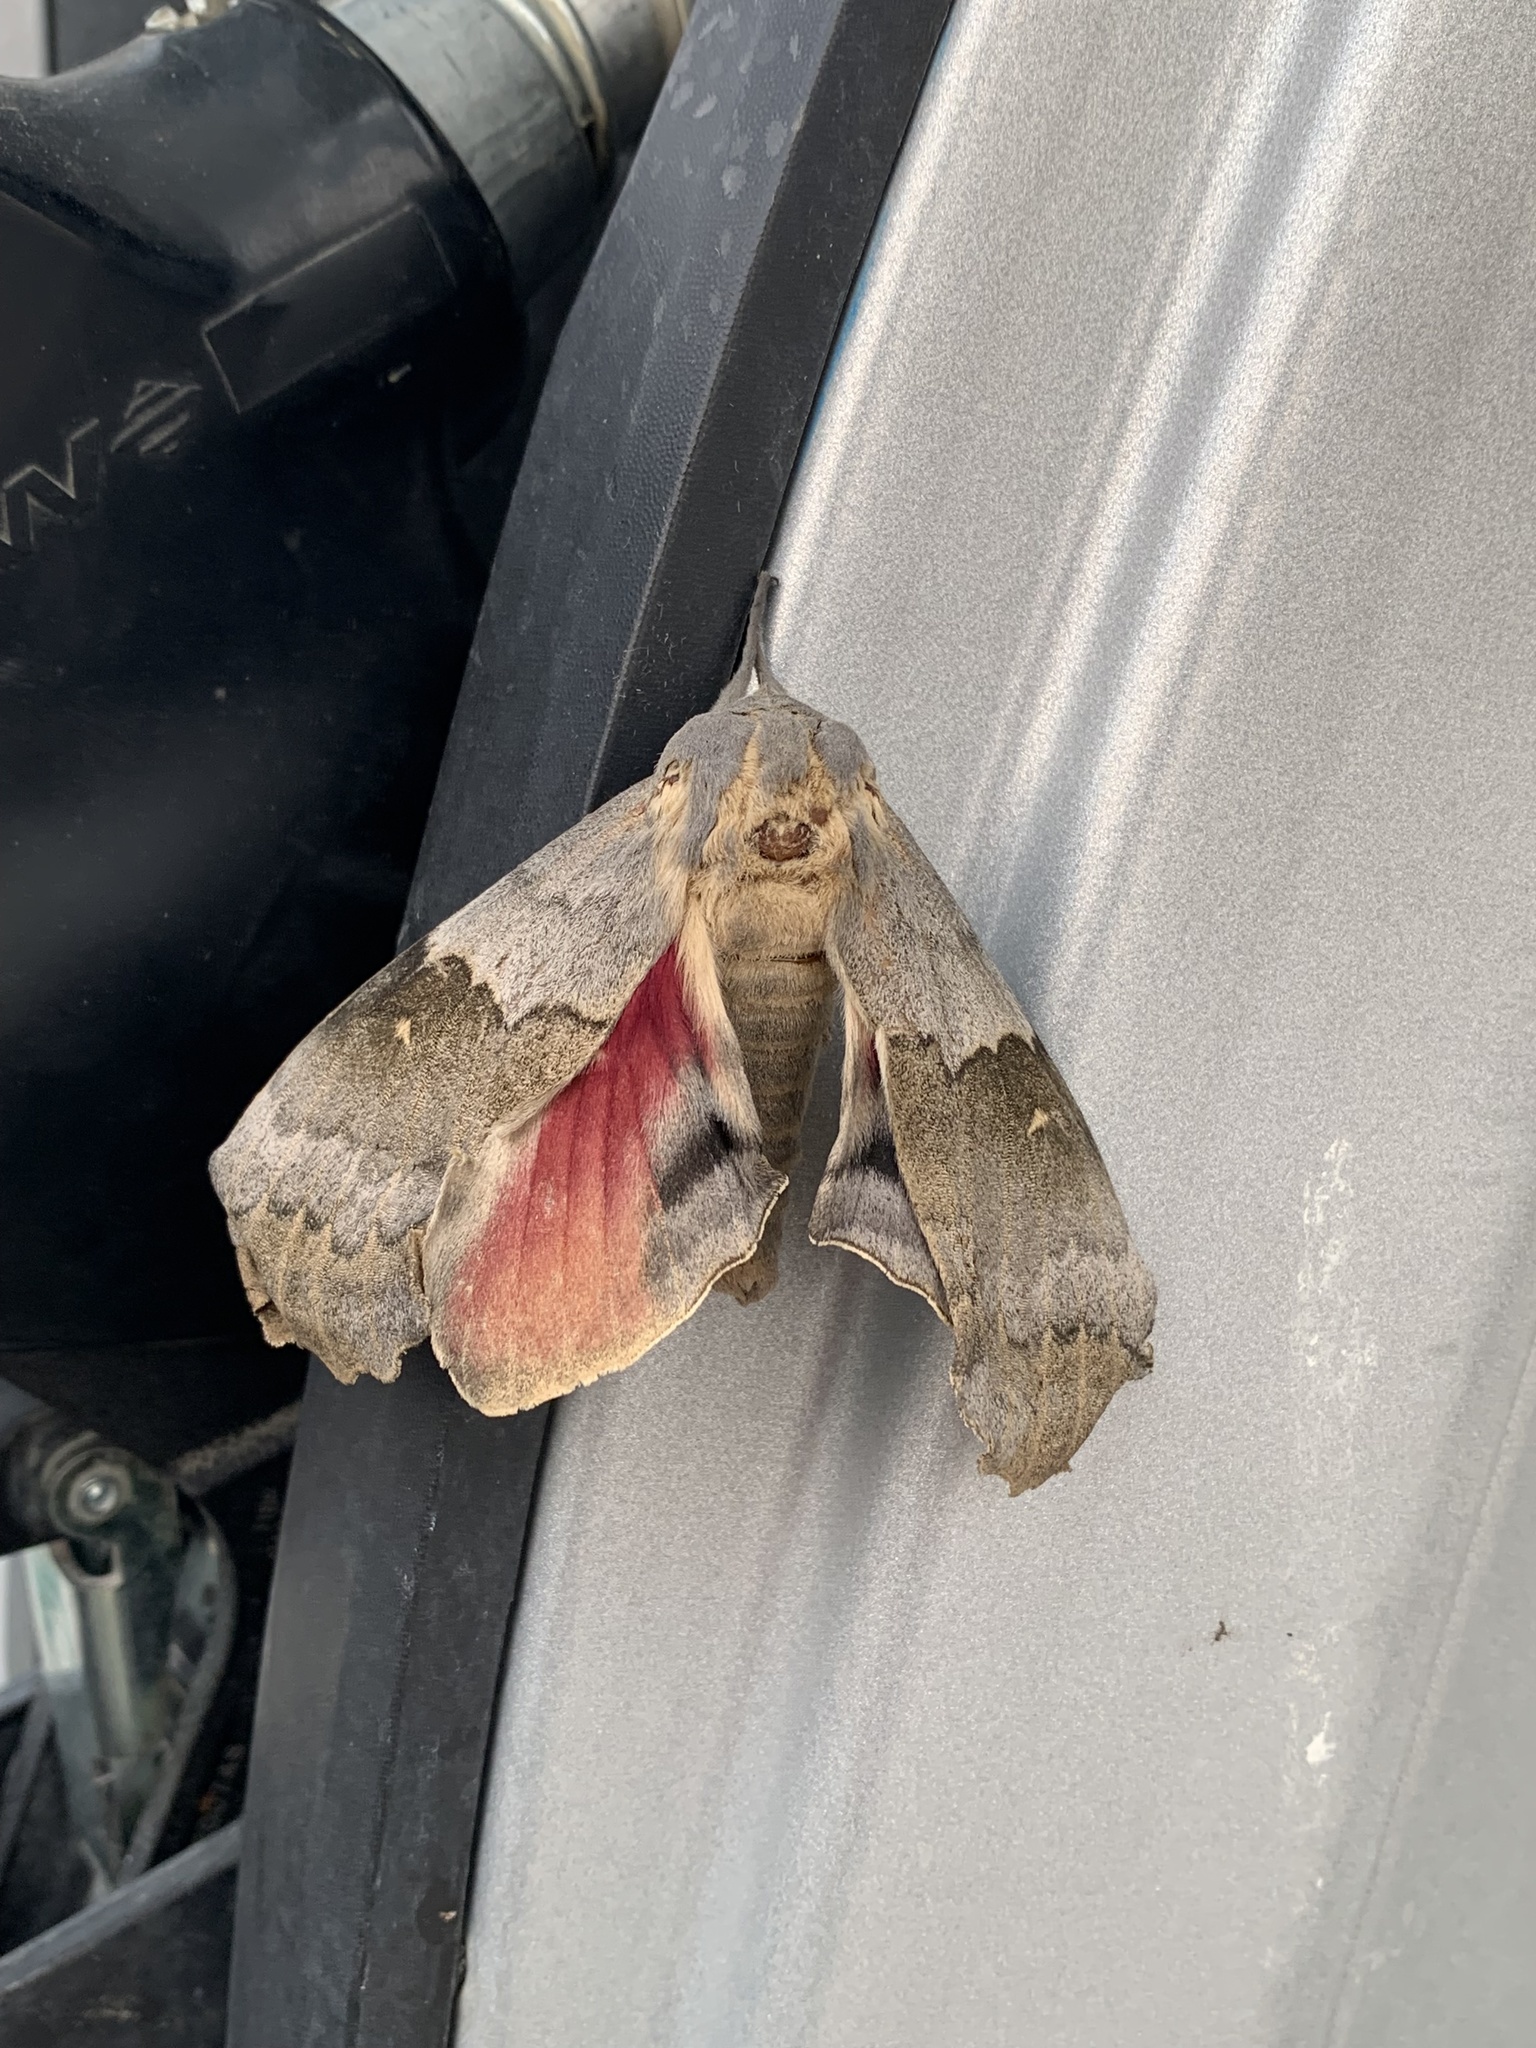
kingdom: Animalia
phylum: Arthropoda
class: Insecta
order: Lepidoptera
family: Sphingidae
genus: Pachysphinx
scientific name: Pachysphinx occidentalis
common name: Western poplar sphinx
